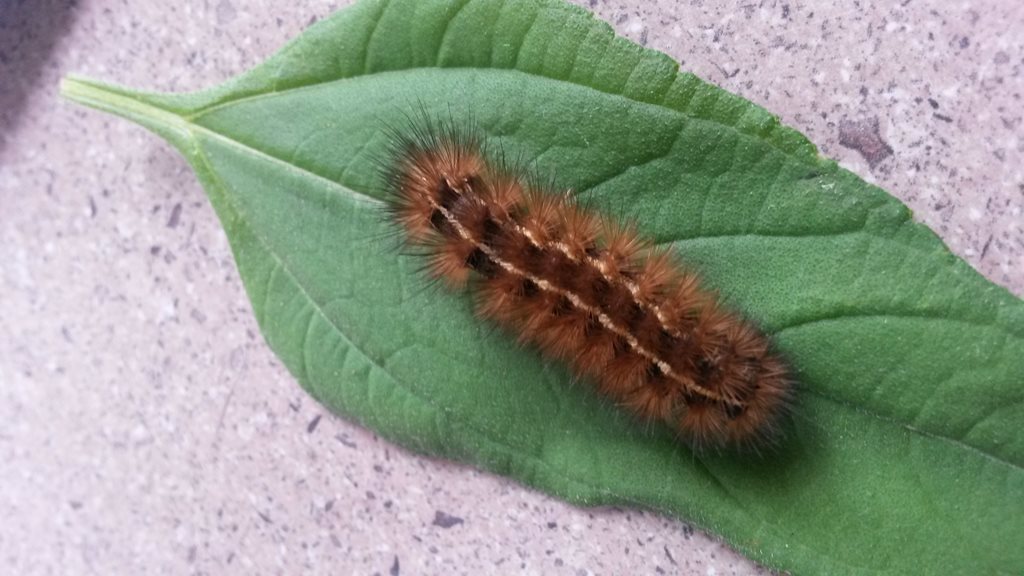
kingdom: Animalia
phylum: Arthropoda
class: Insecta
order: Lepidoptera
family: Erebidae
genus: Ardices
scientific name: Ardices curvata
